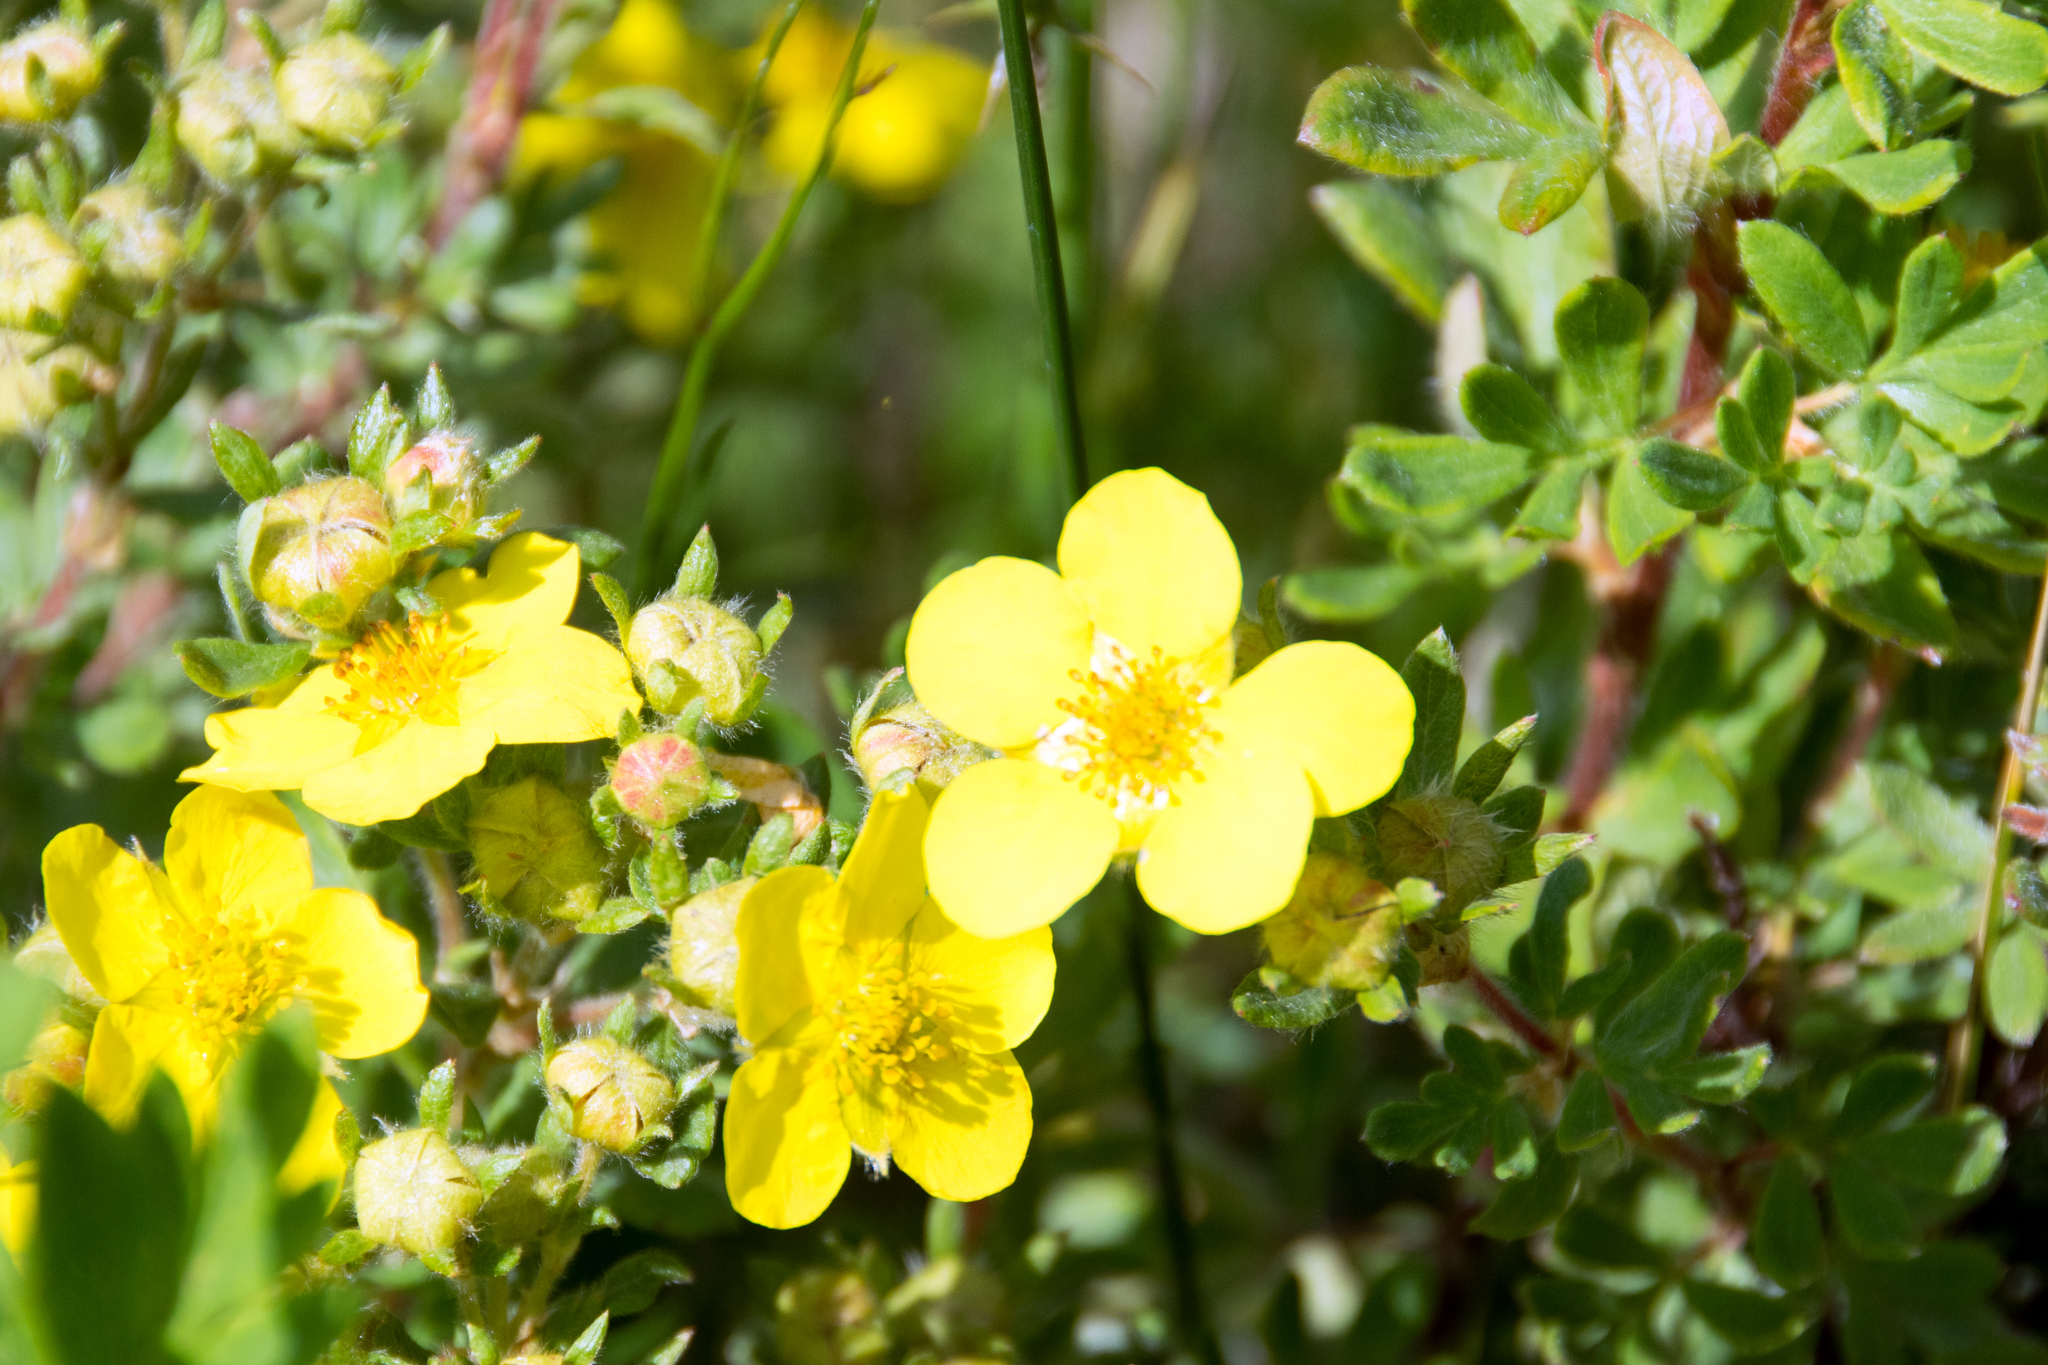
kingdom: Plantae
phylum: Tracheophyta
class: Magnoliopsida
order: Rosales
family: Rosaceae
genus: Dasiphora
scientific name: Dasiphora fruticosa
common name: Shrubby cinquefoil
